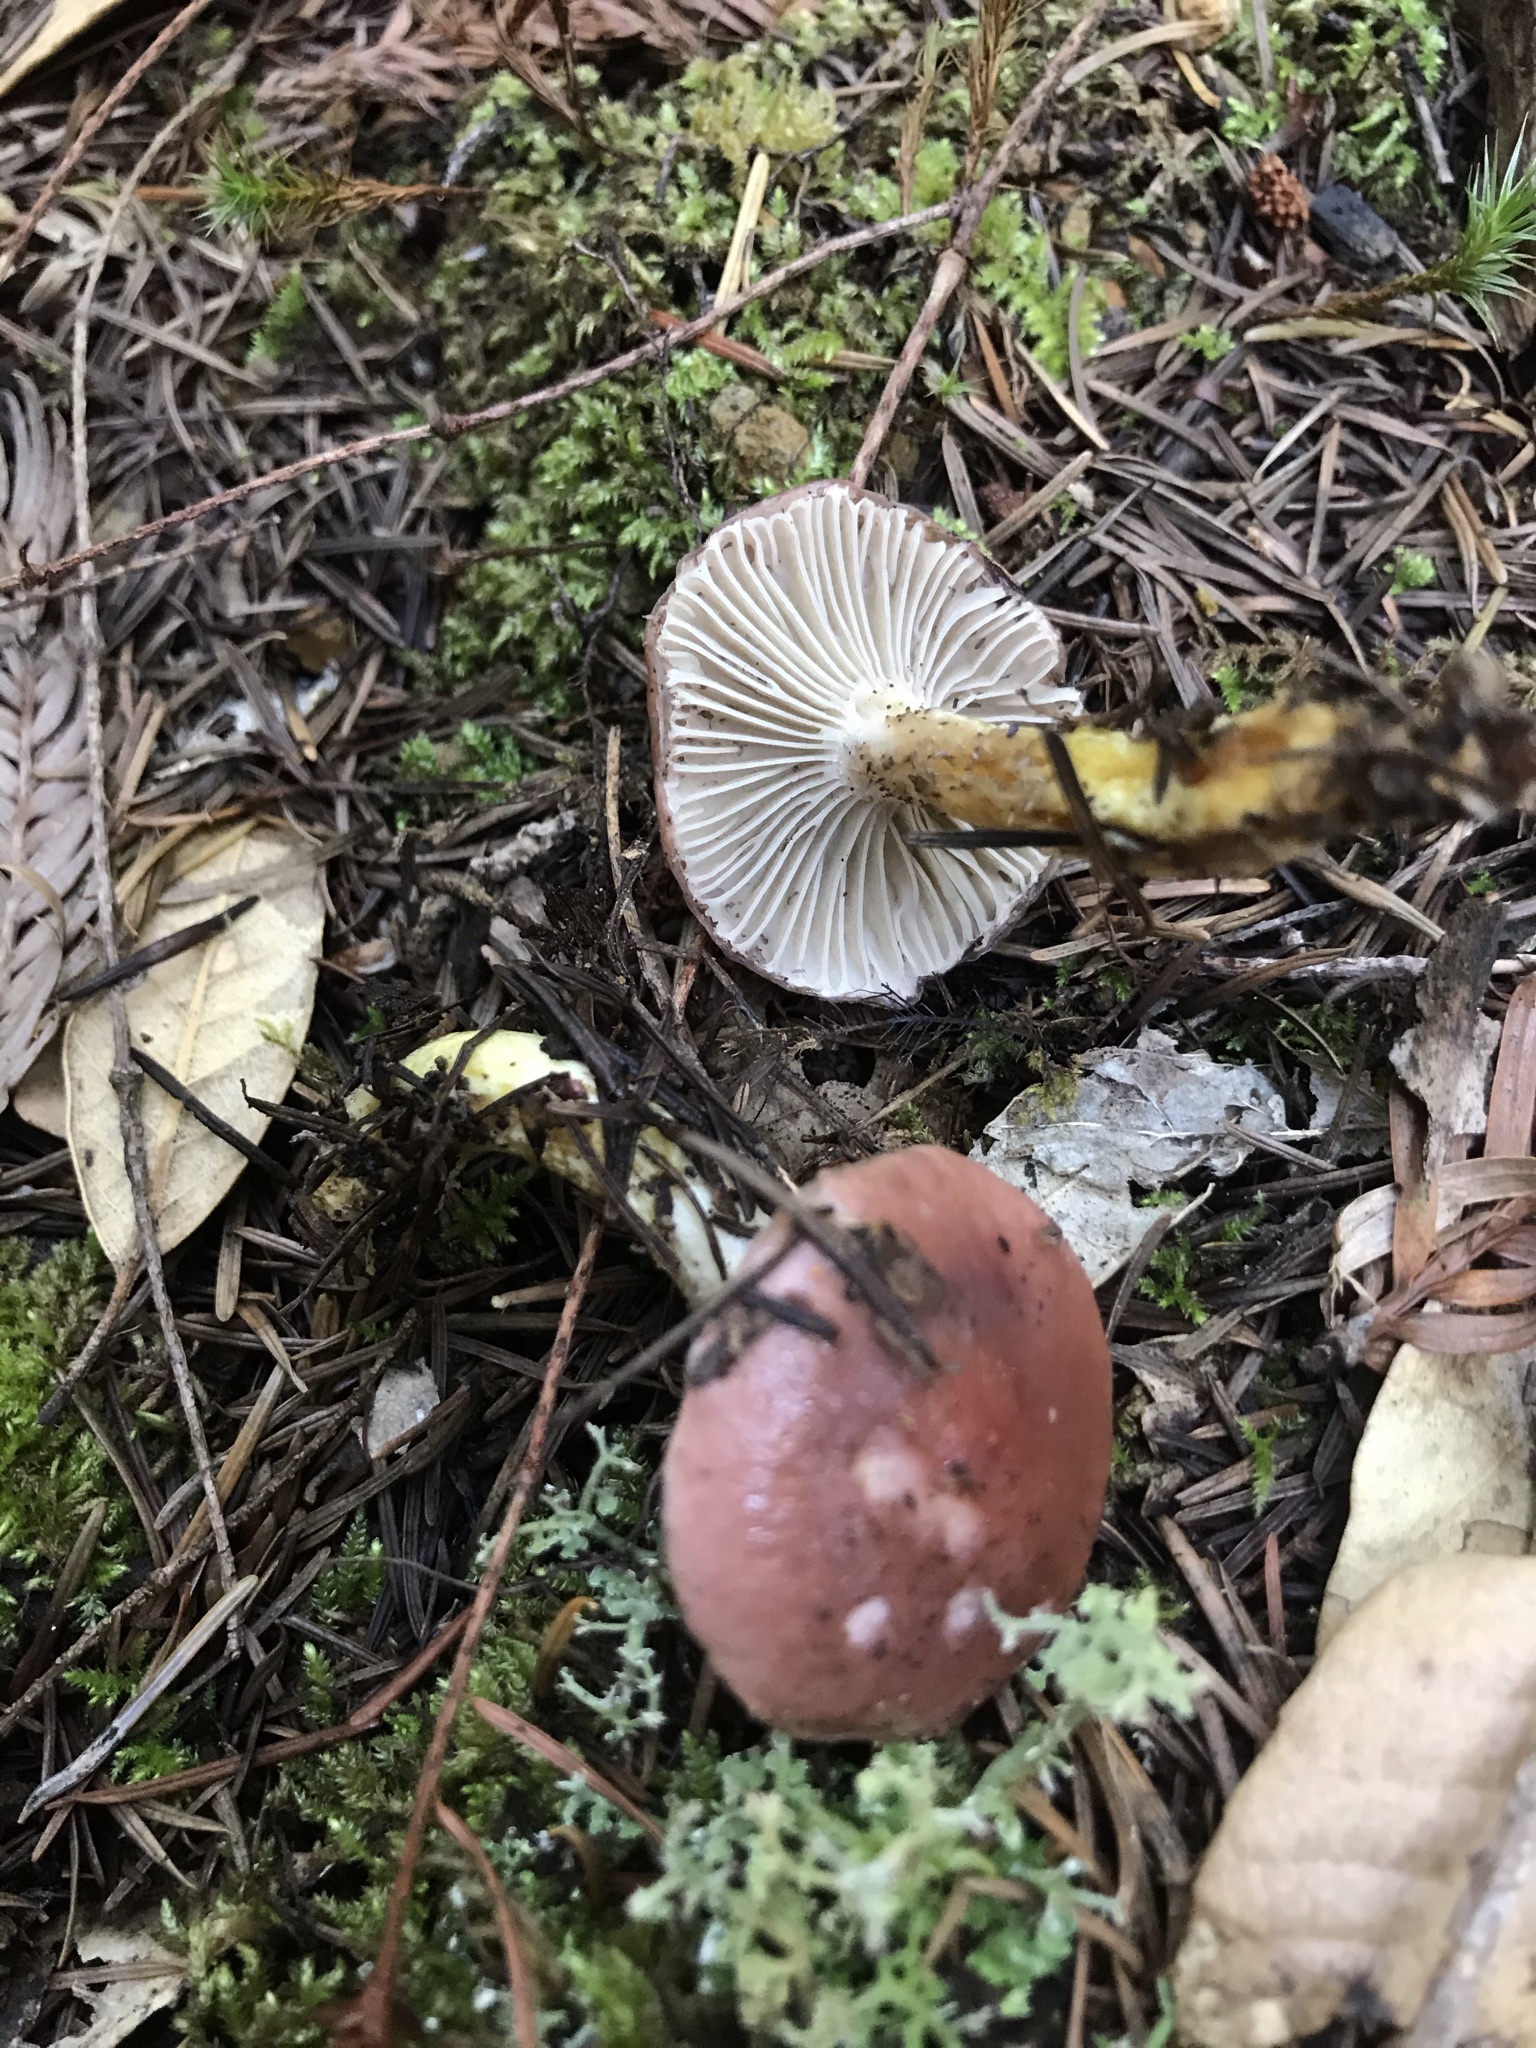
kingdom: Fungi
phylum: Basidiomycota
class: Agaricomycetes
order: Boletales
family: Gomphidiaceae
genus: Gomphidius
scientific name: Gomphidius subroseus
